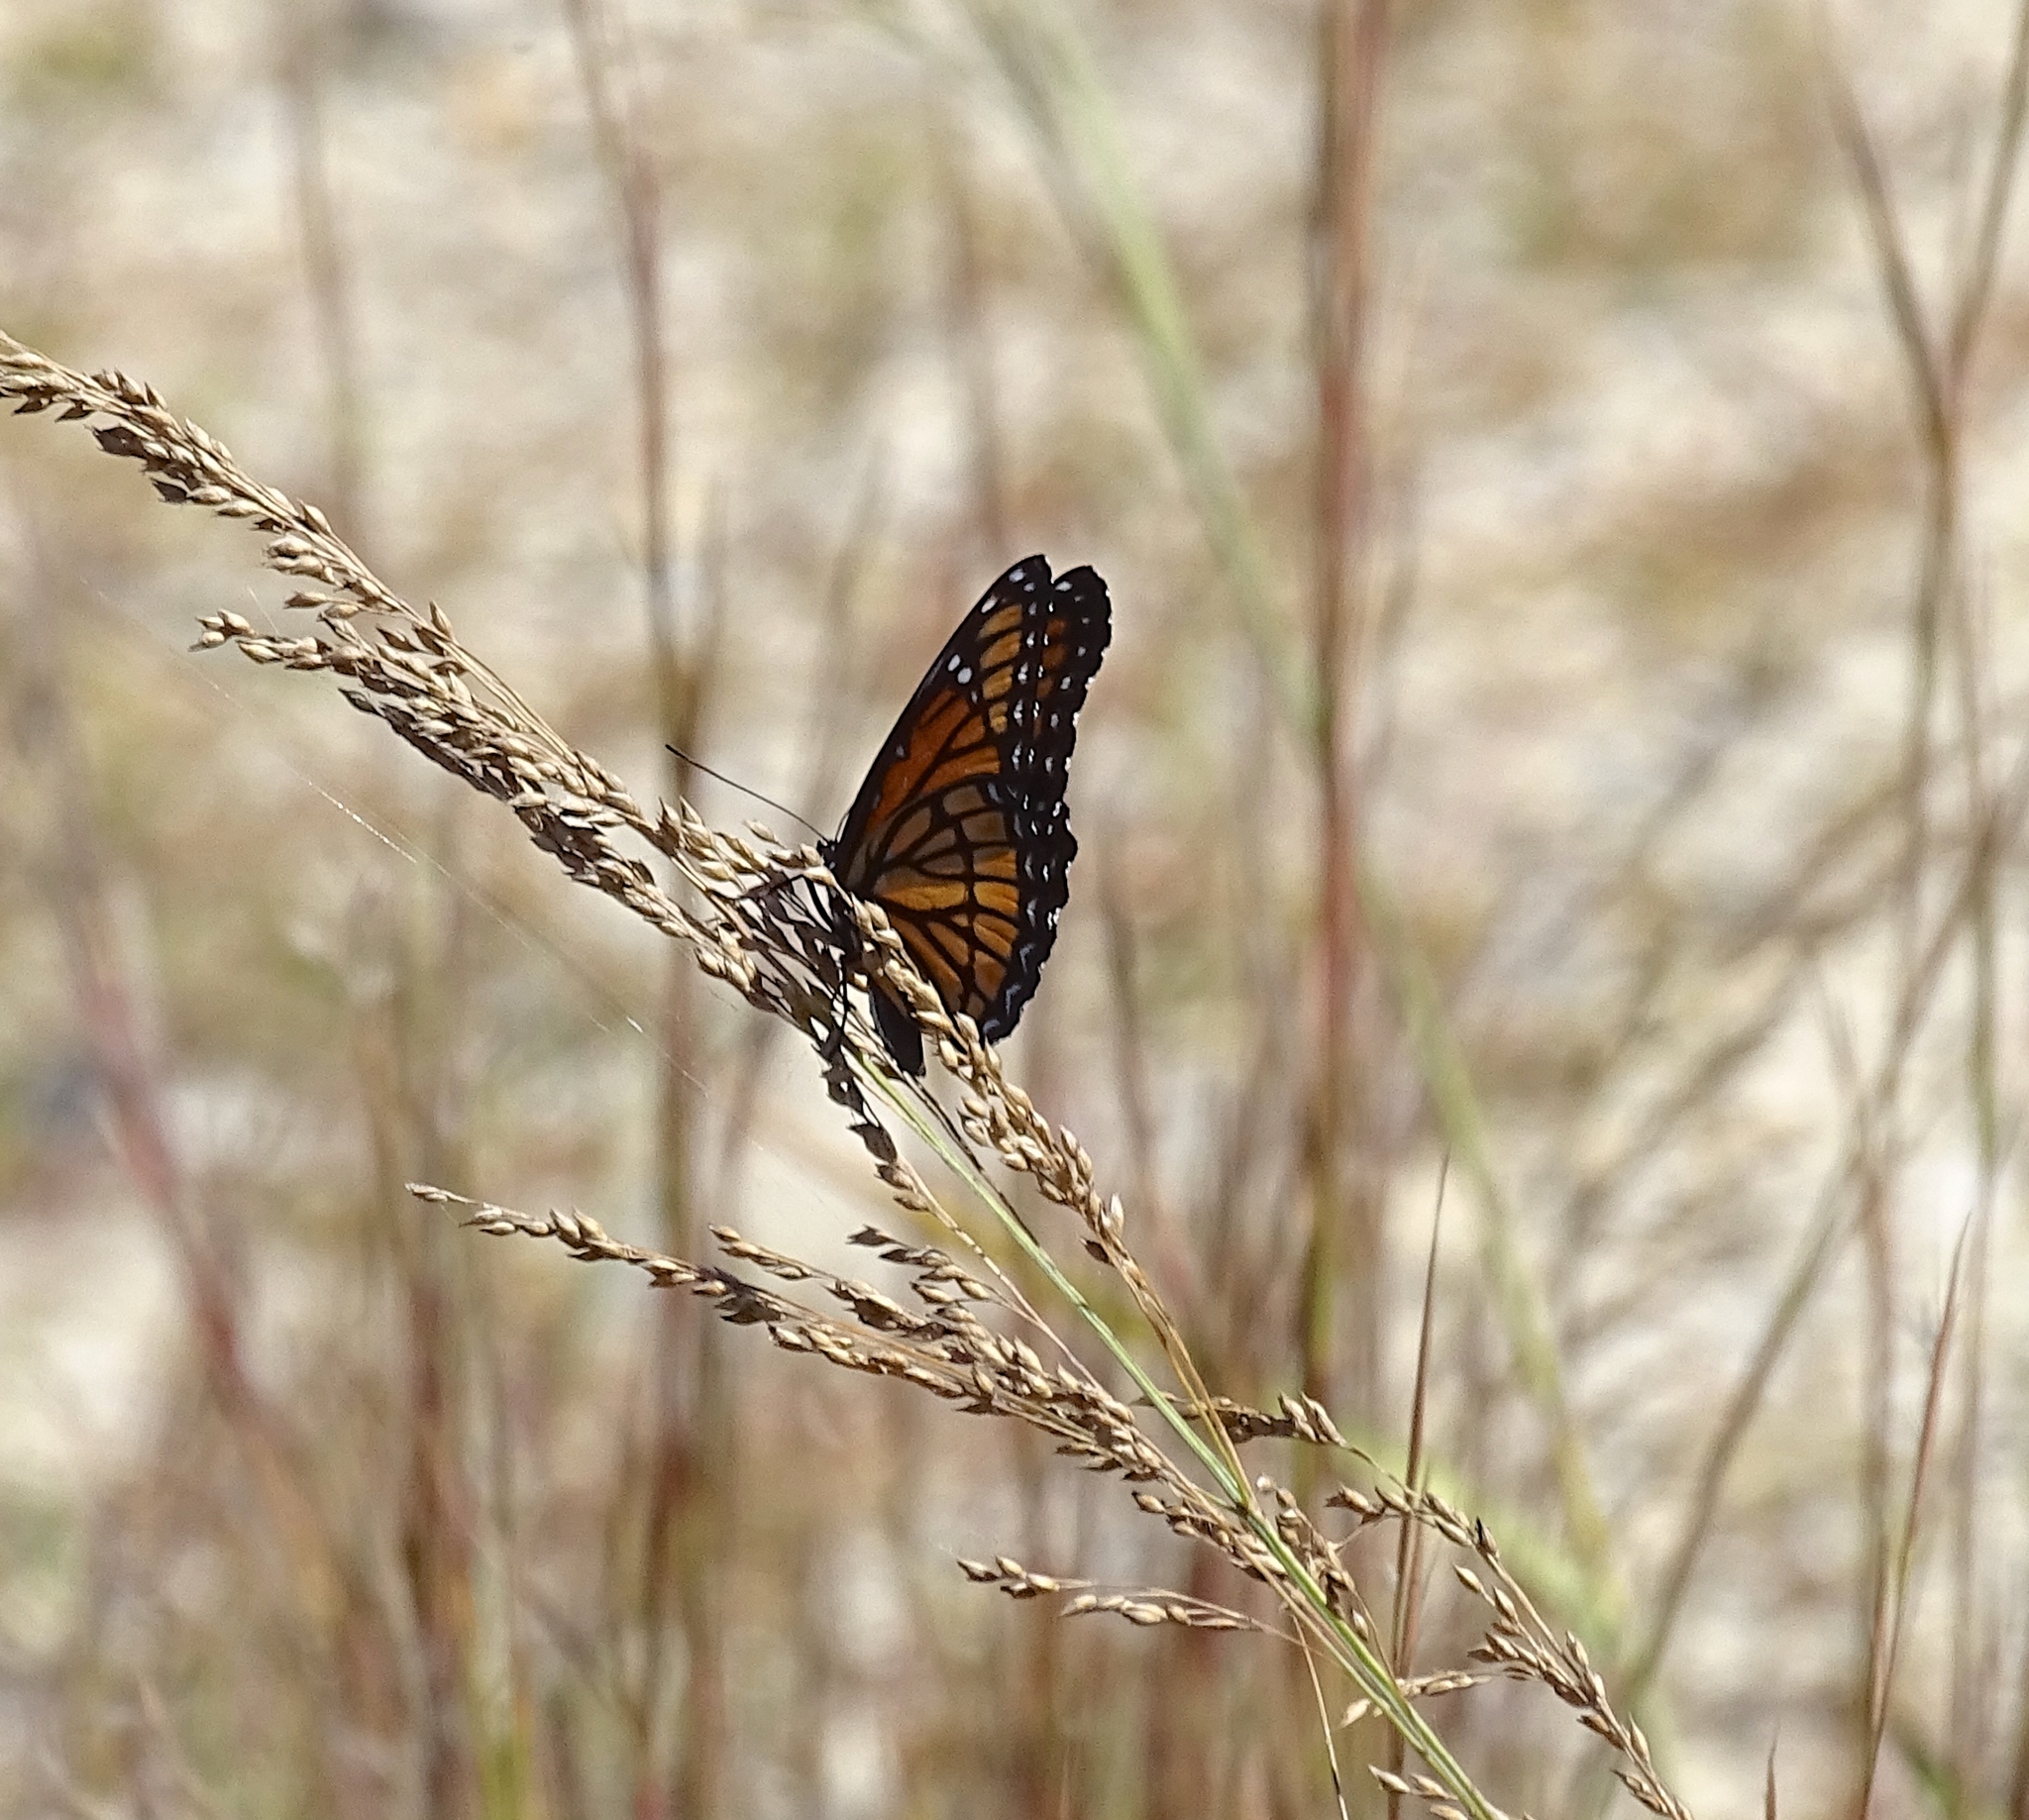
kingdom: Animalia
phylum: Arthropoda
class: Insecta
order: Lepidoptera
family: Nymphalidae
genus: Limenitis
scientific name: Limenitis archippus
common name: Viceroy
